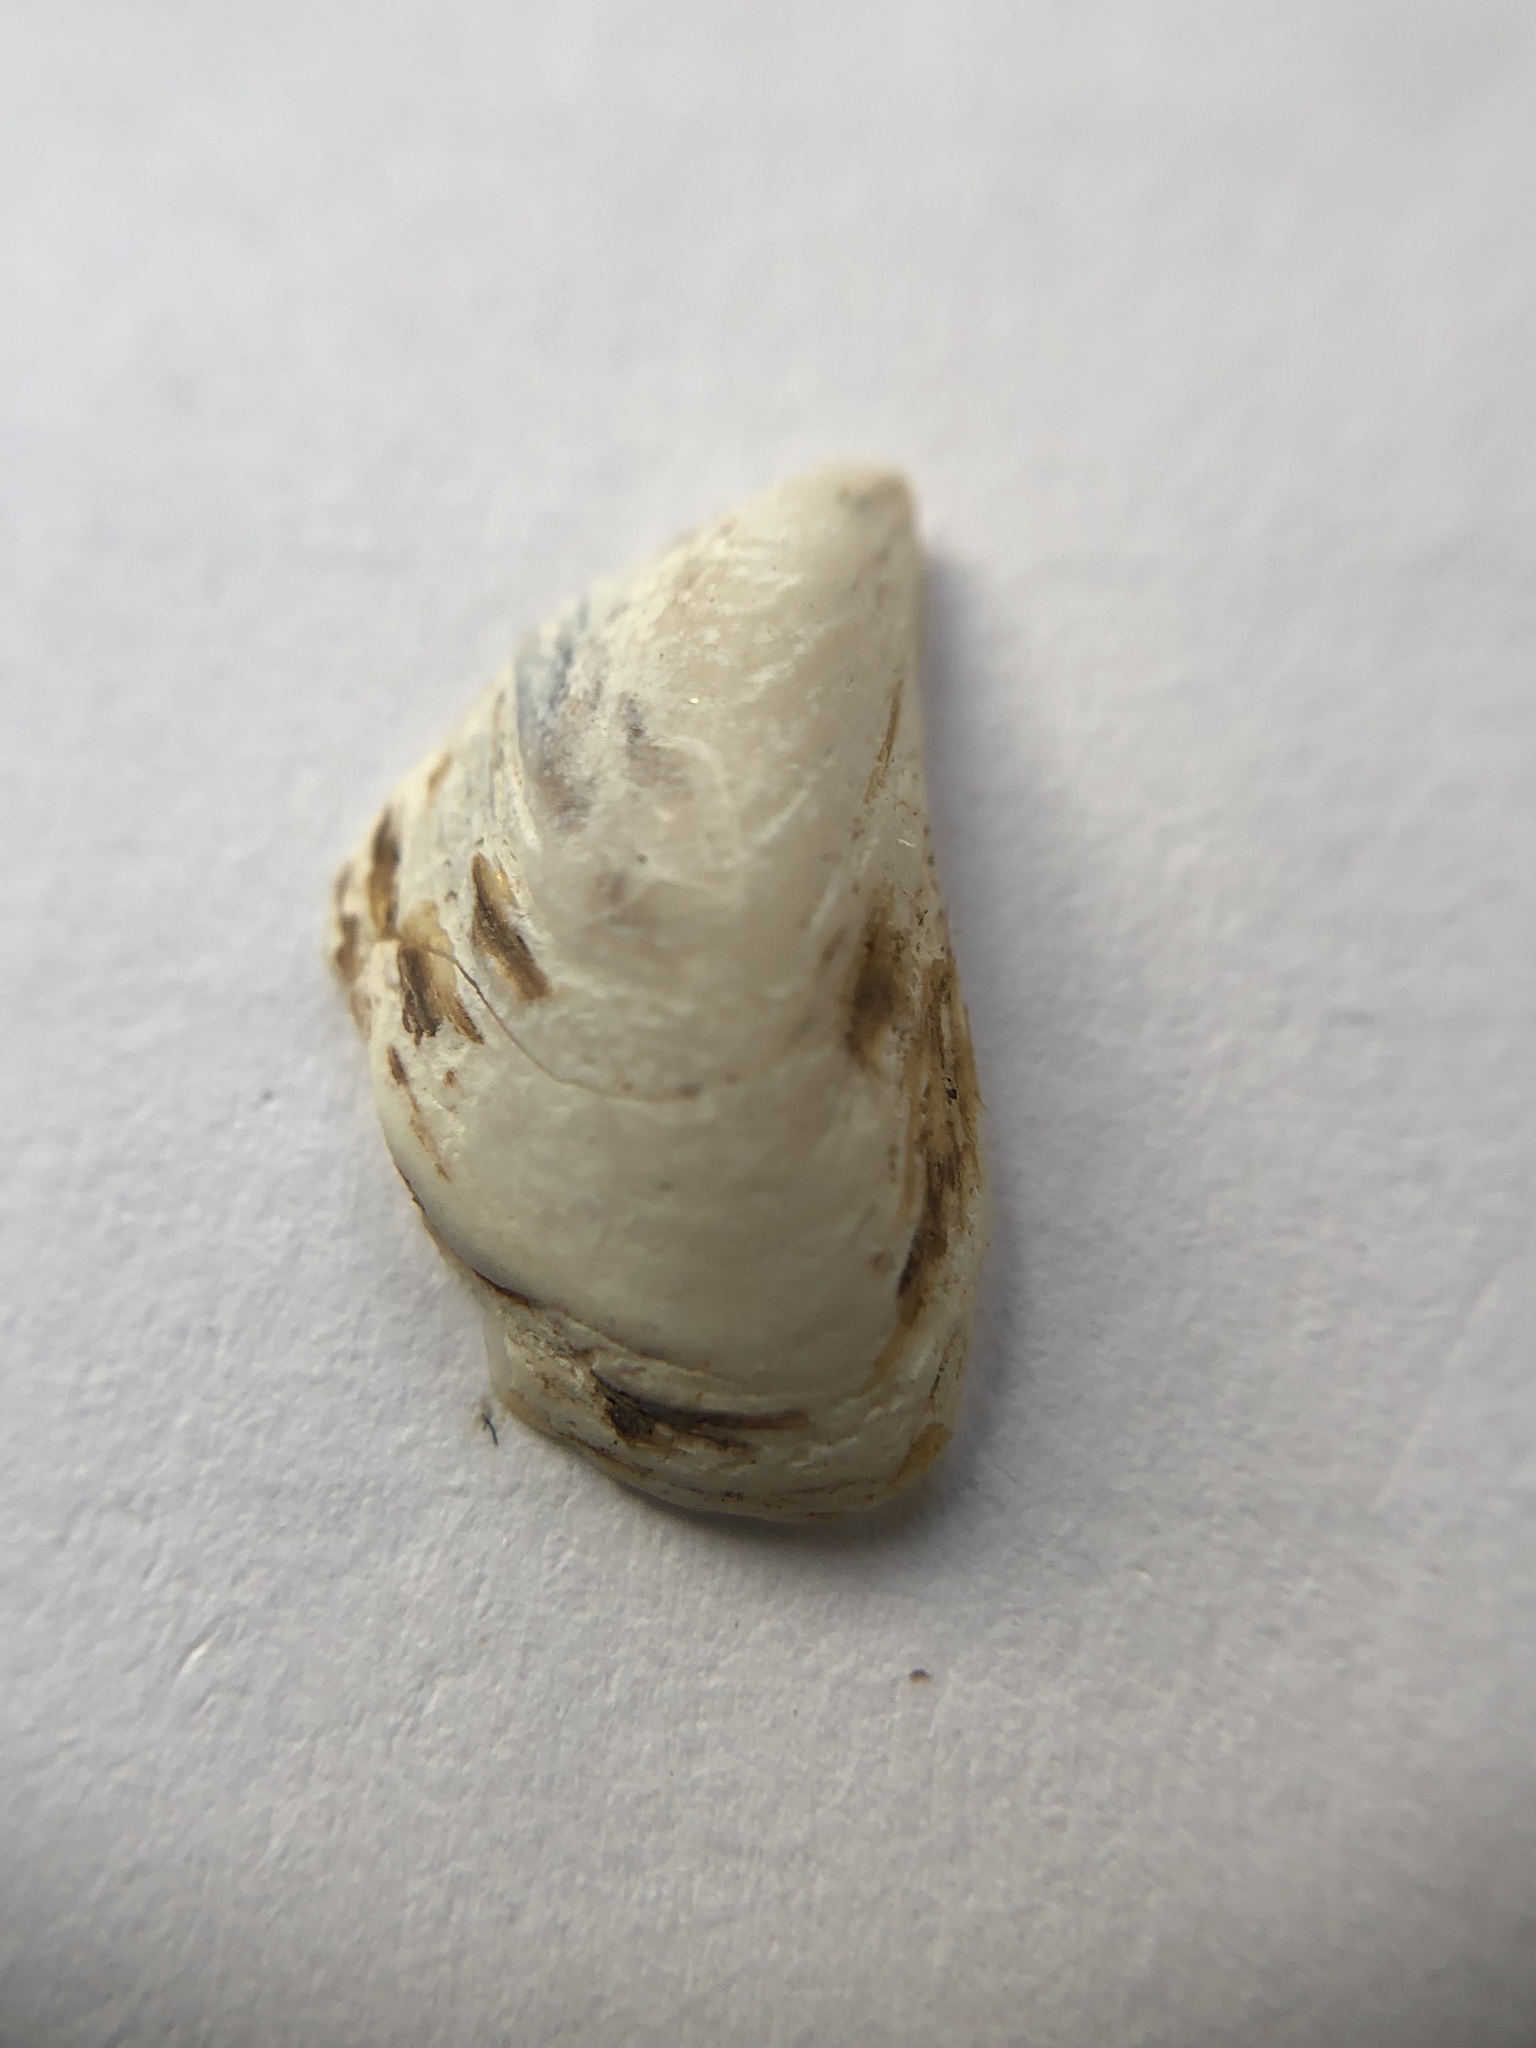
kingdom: Animalia
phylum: Mollusca
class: Bivalvia
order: Myida
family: Dreissenidae
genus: Dreissena
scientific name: Dreissena bugensis
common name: Quagga mussel
